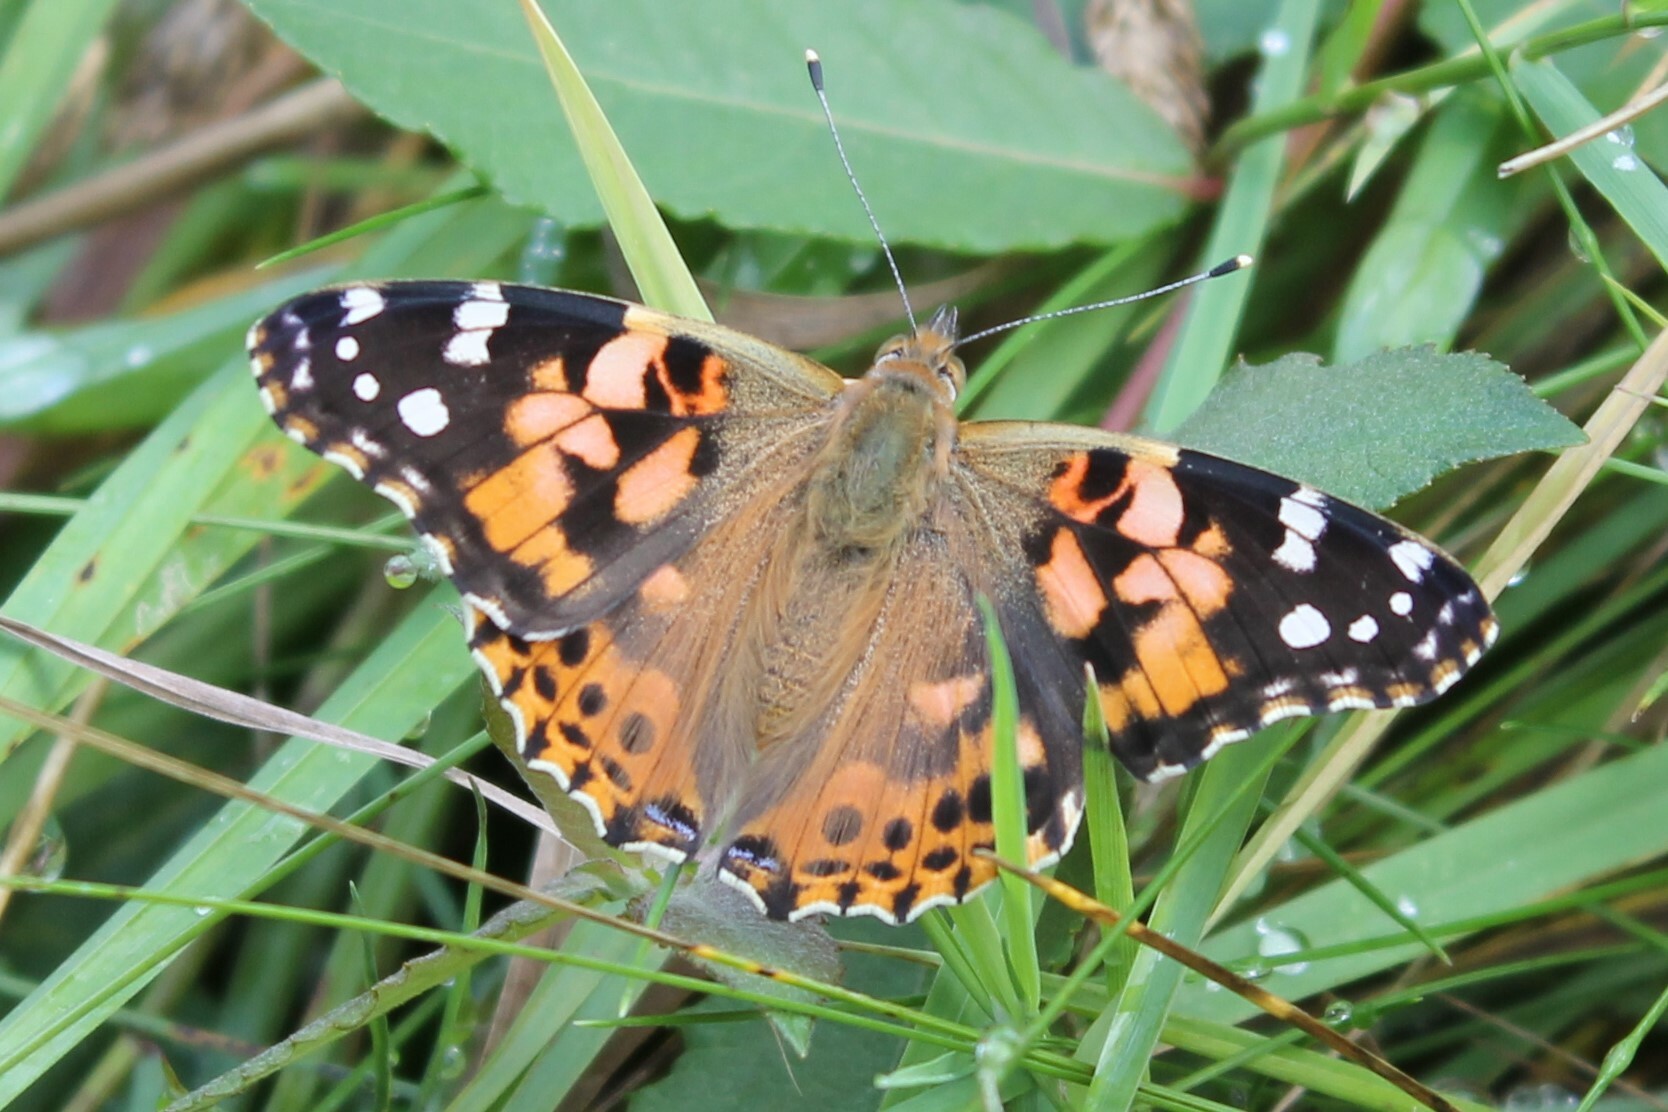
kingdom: Animalia
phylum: Arthropoda
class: Insecta
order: Lepidoptera
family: Nymphalidae
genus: Vanessa
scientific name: Vanessa cardui
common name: Painted lady
